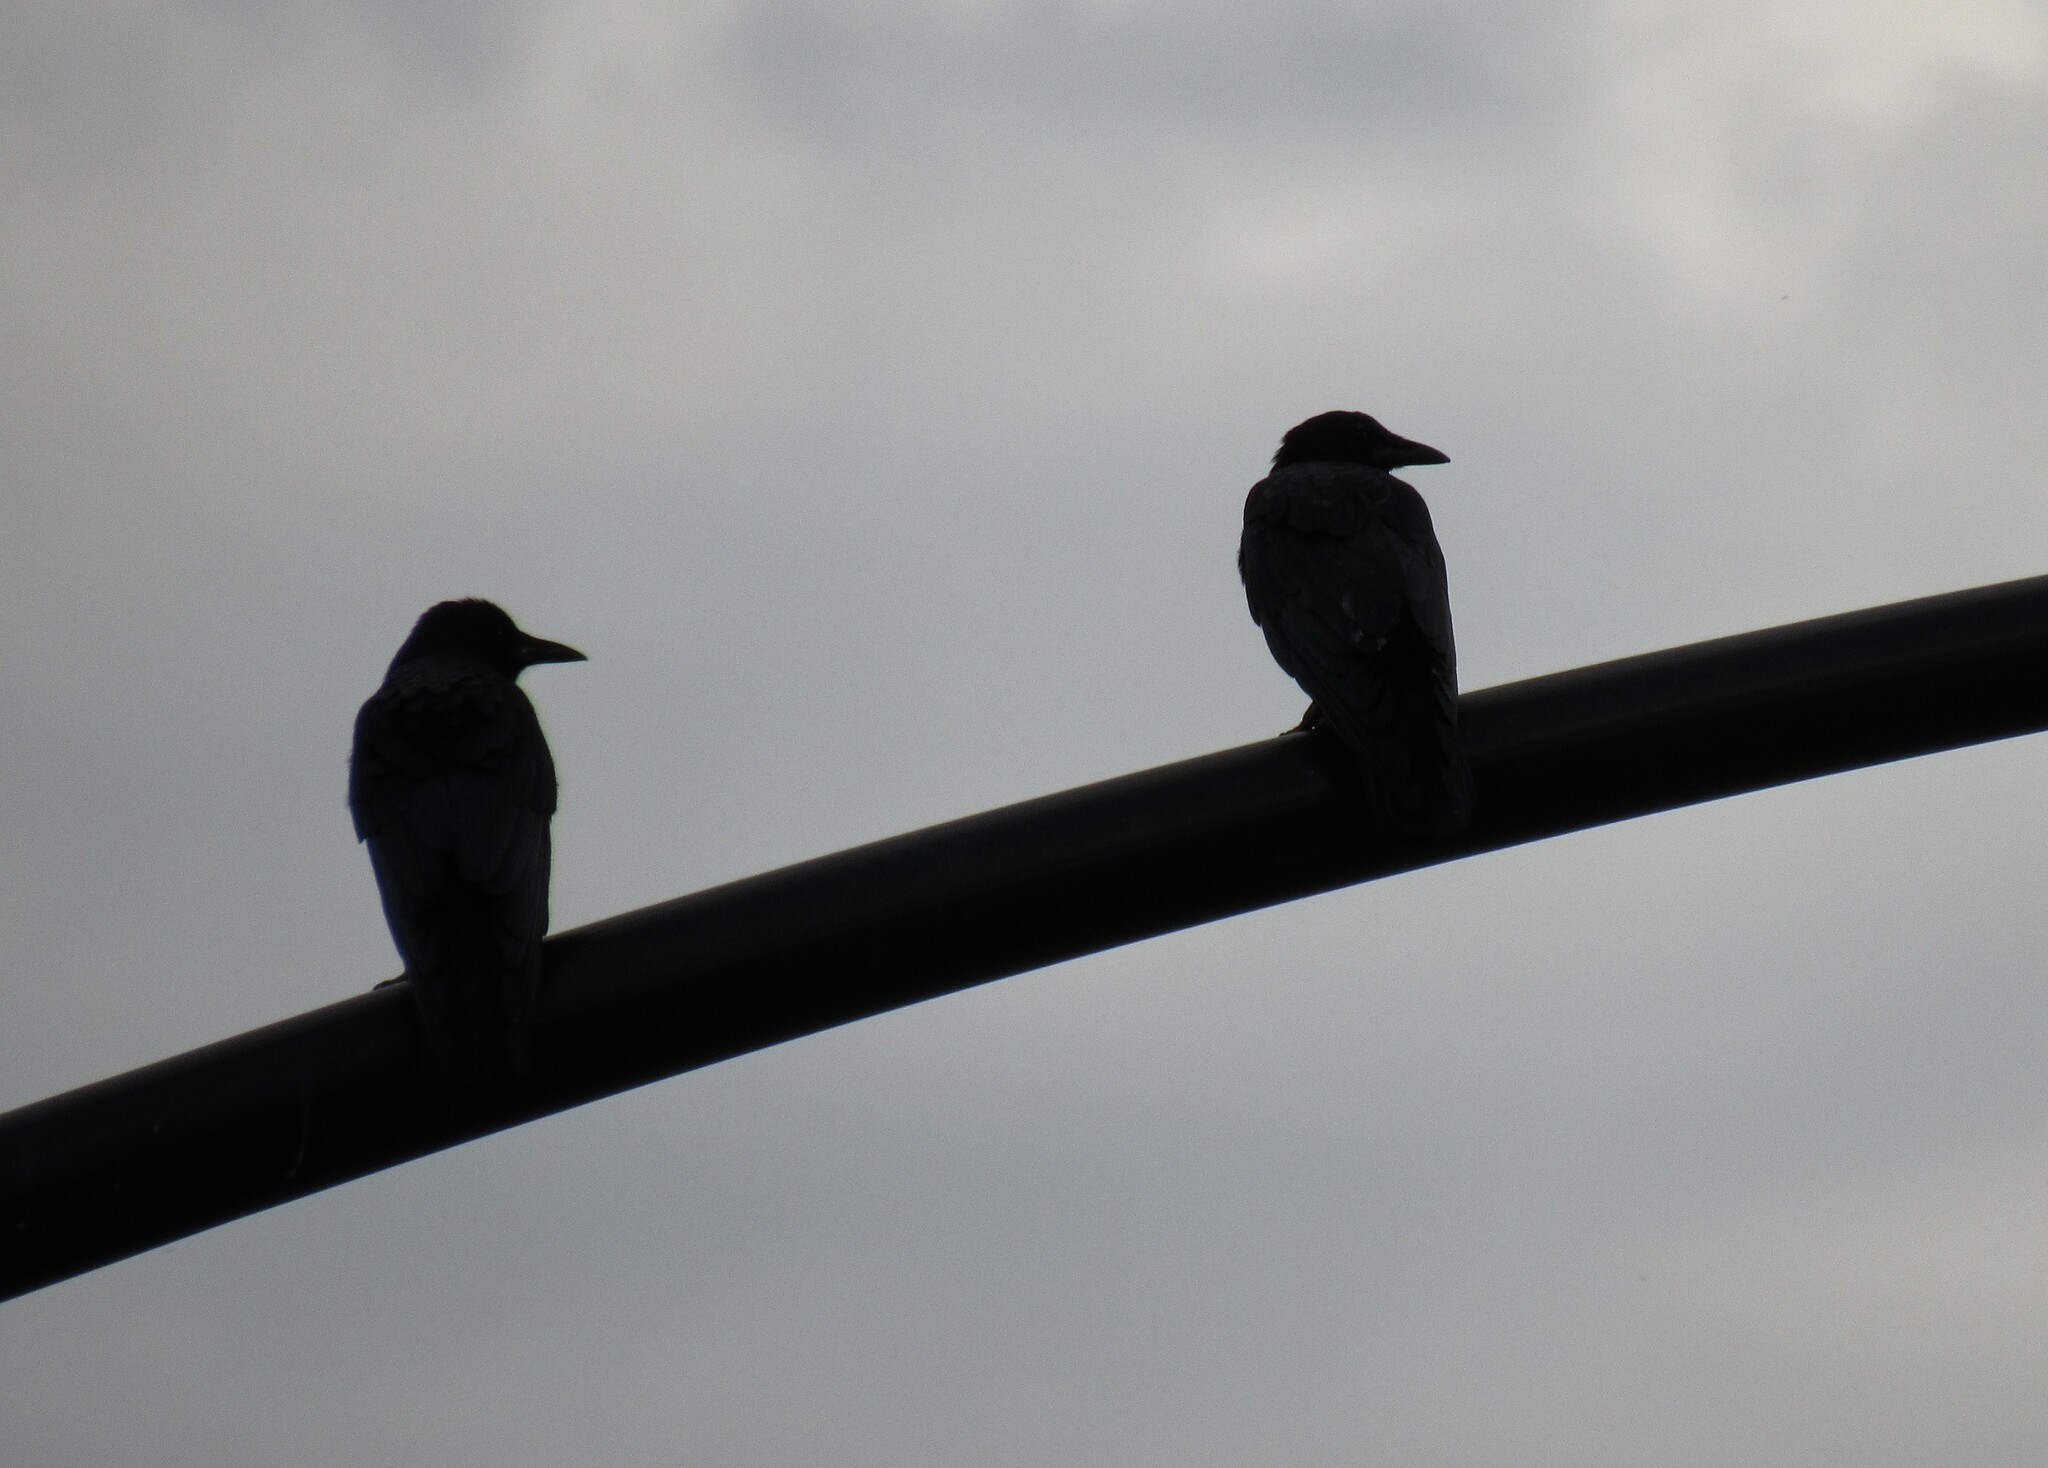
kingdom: Animalia
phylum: Chordata
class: Aves
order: Passeriformes
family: Corvidae
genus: Corvus
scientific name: Corvus brachyrhynchos
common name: American crow
